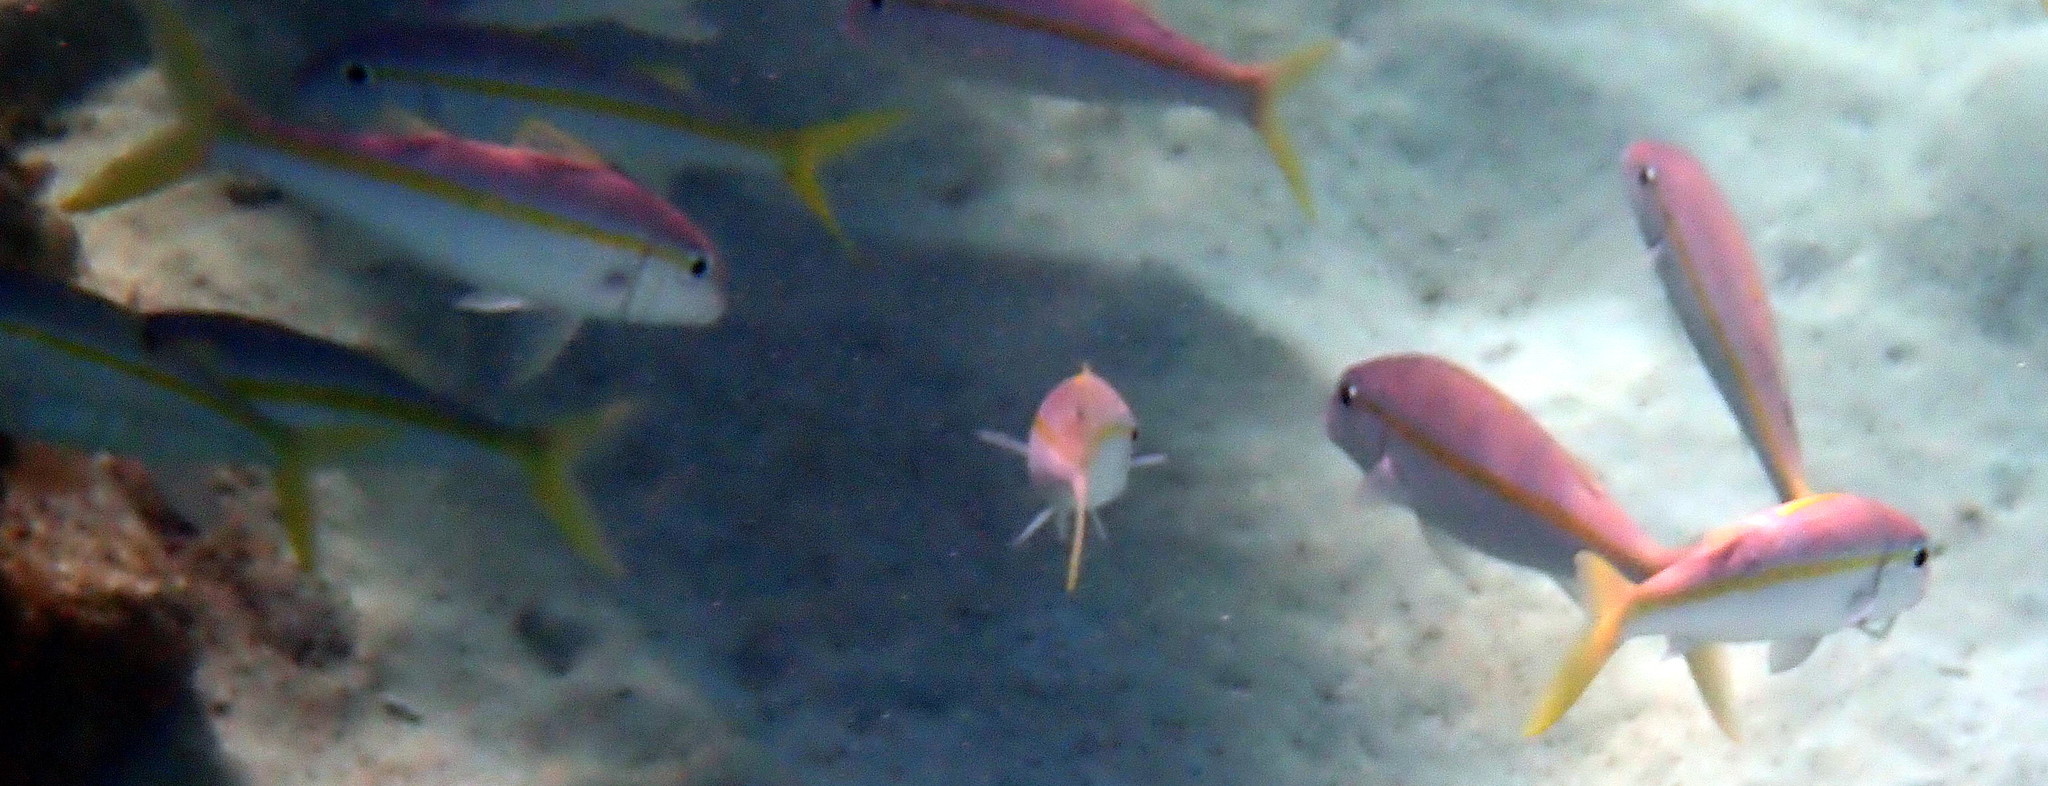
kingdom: Animalia
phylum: Chordata
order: Perciformes
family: Mullidae
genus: Mulloidichthys
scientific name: Mulloidichthys martinicus
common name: Yellow goatfish
